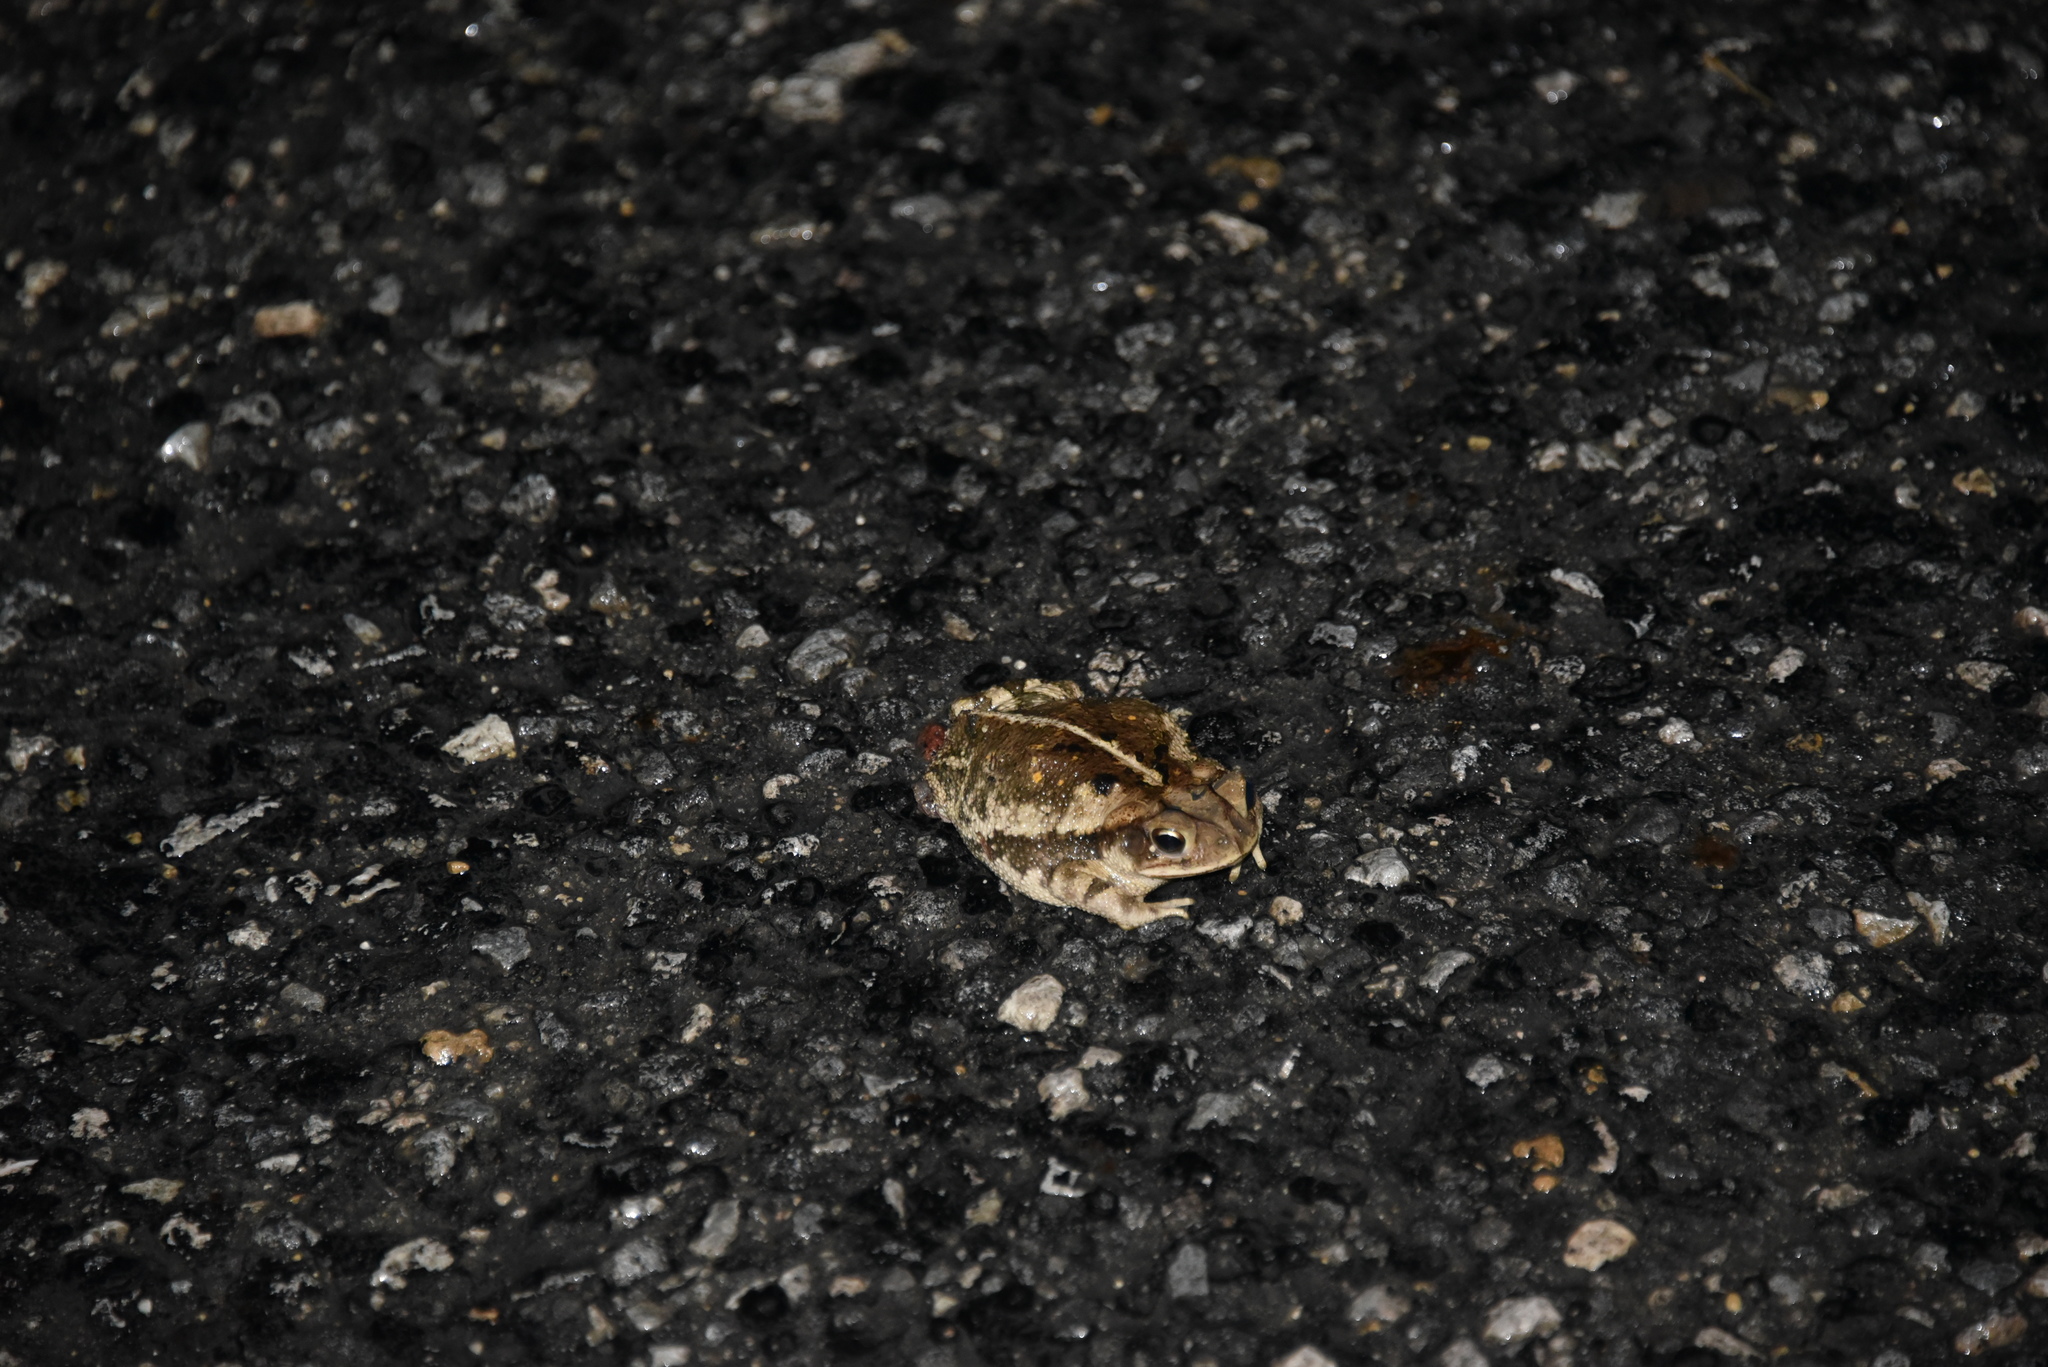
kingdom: Animalia
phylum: Chordata
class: Amphibia
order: Anura
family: Bufonidae
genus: Incilius
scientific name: Incilius nebulifer
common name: Gulf coast toad
